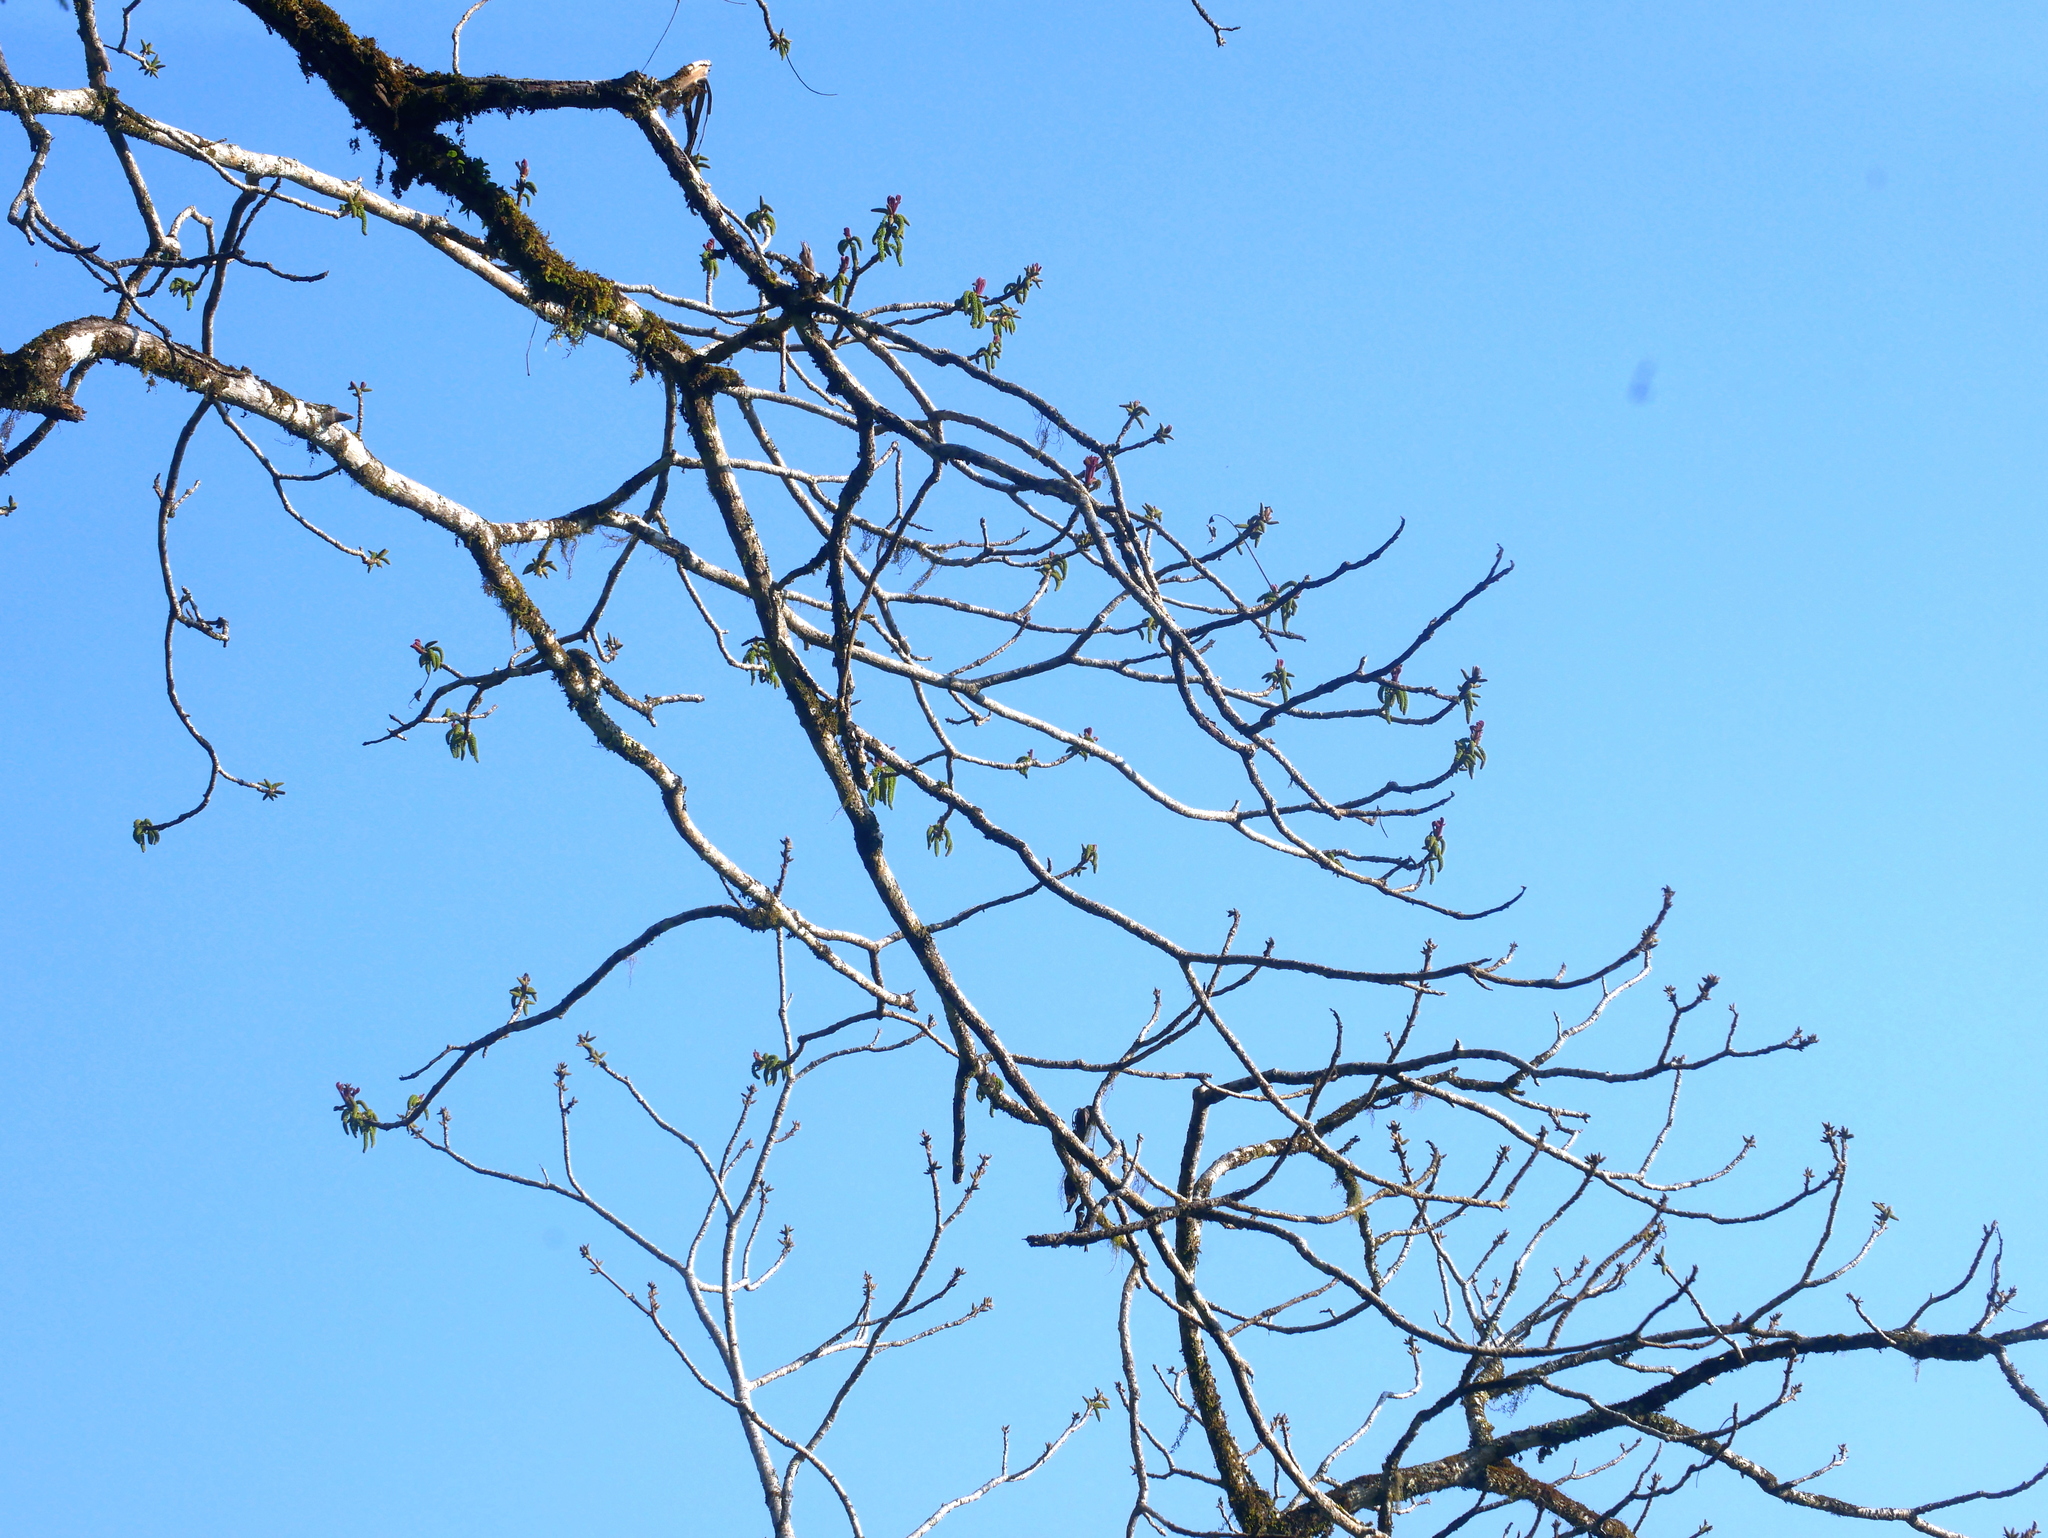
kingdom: Plantae
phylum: Tracheophyta
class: Magnoliopsida
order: Fagales
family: Juglandaceae
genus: Juglans
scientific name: Juglans mandshurica
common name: Manchurian walnut
